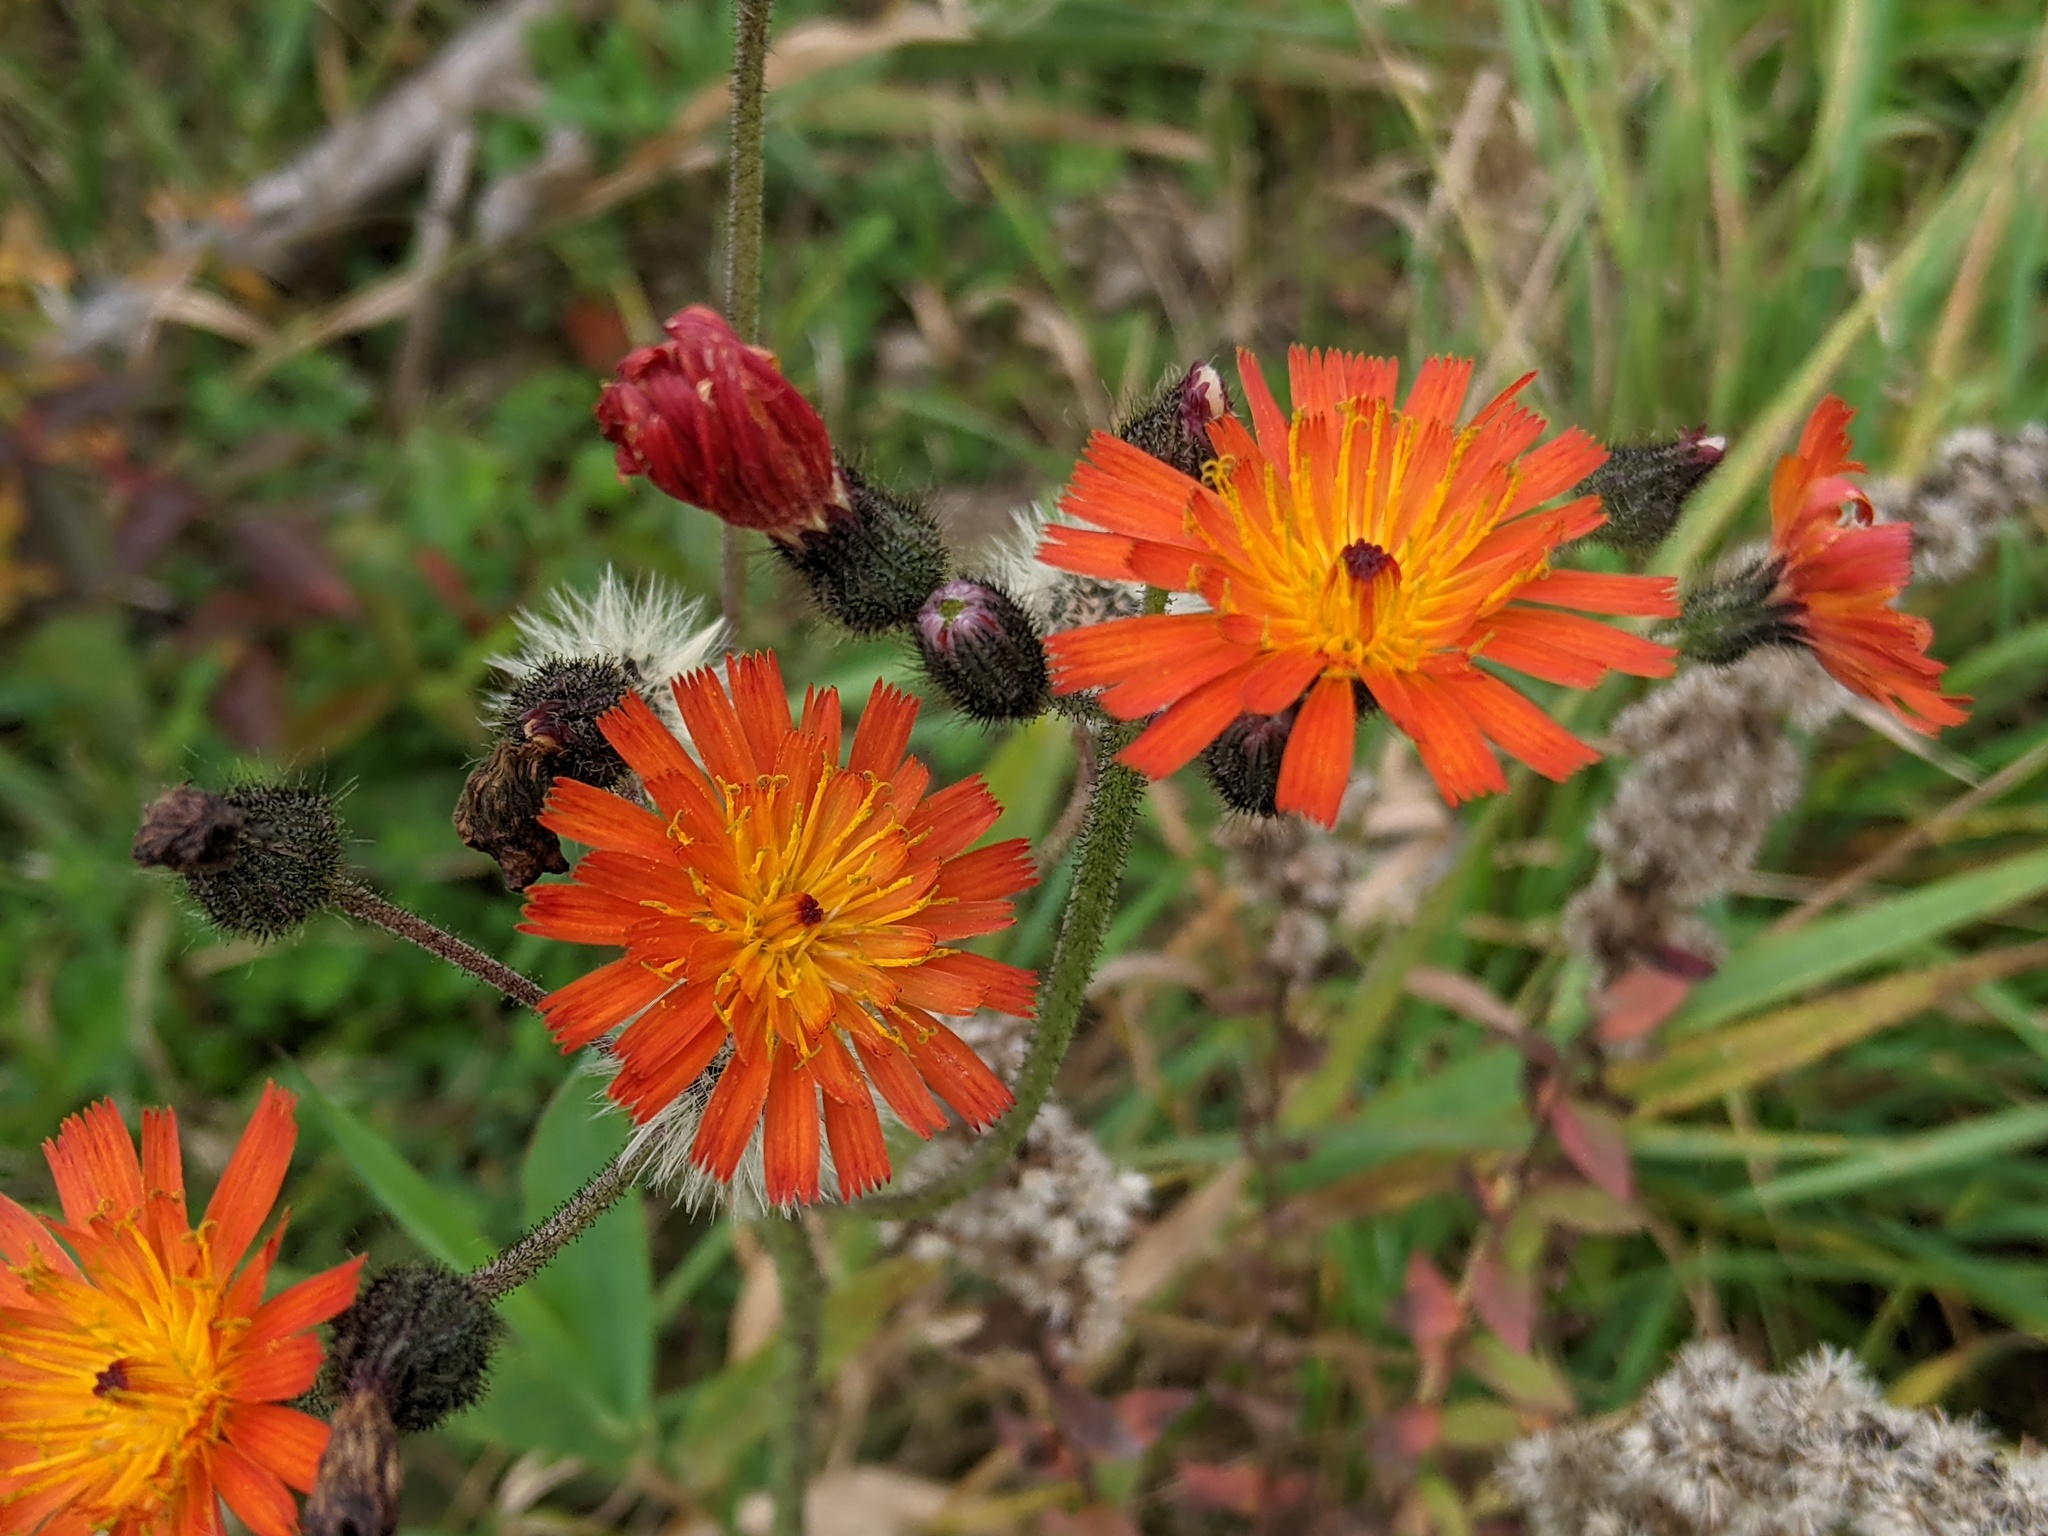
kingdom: Plantae
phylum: Tracheophyta
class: Magnoliopsida
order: Asterales
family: Asteraceae
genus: Pilosella
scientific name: Pilosella aurantiaca
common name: Fox-and-cubs
